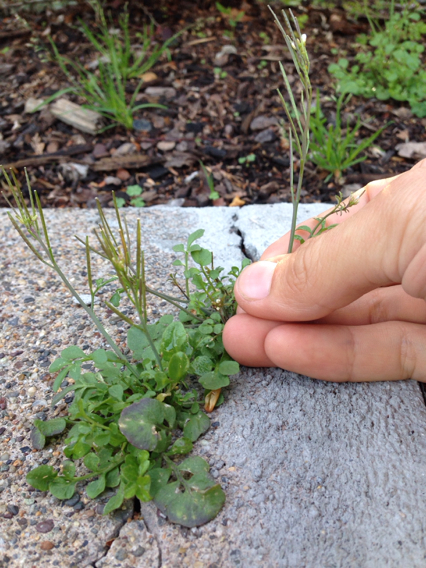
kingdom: Plantae
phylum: Tracheophyta
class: Magnoliopsida
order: Brassicales
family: Brassicaceae
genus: Cardamine
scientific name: Cardamine hirsuta
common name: Hairy bittercress
